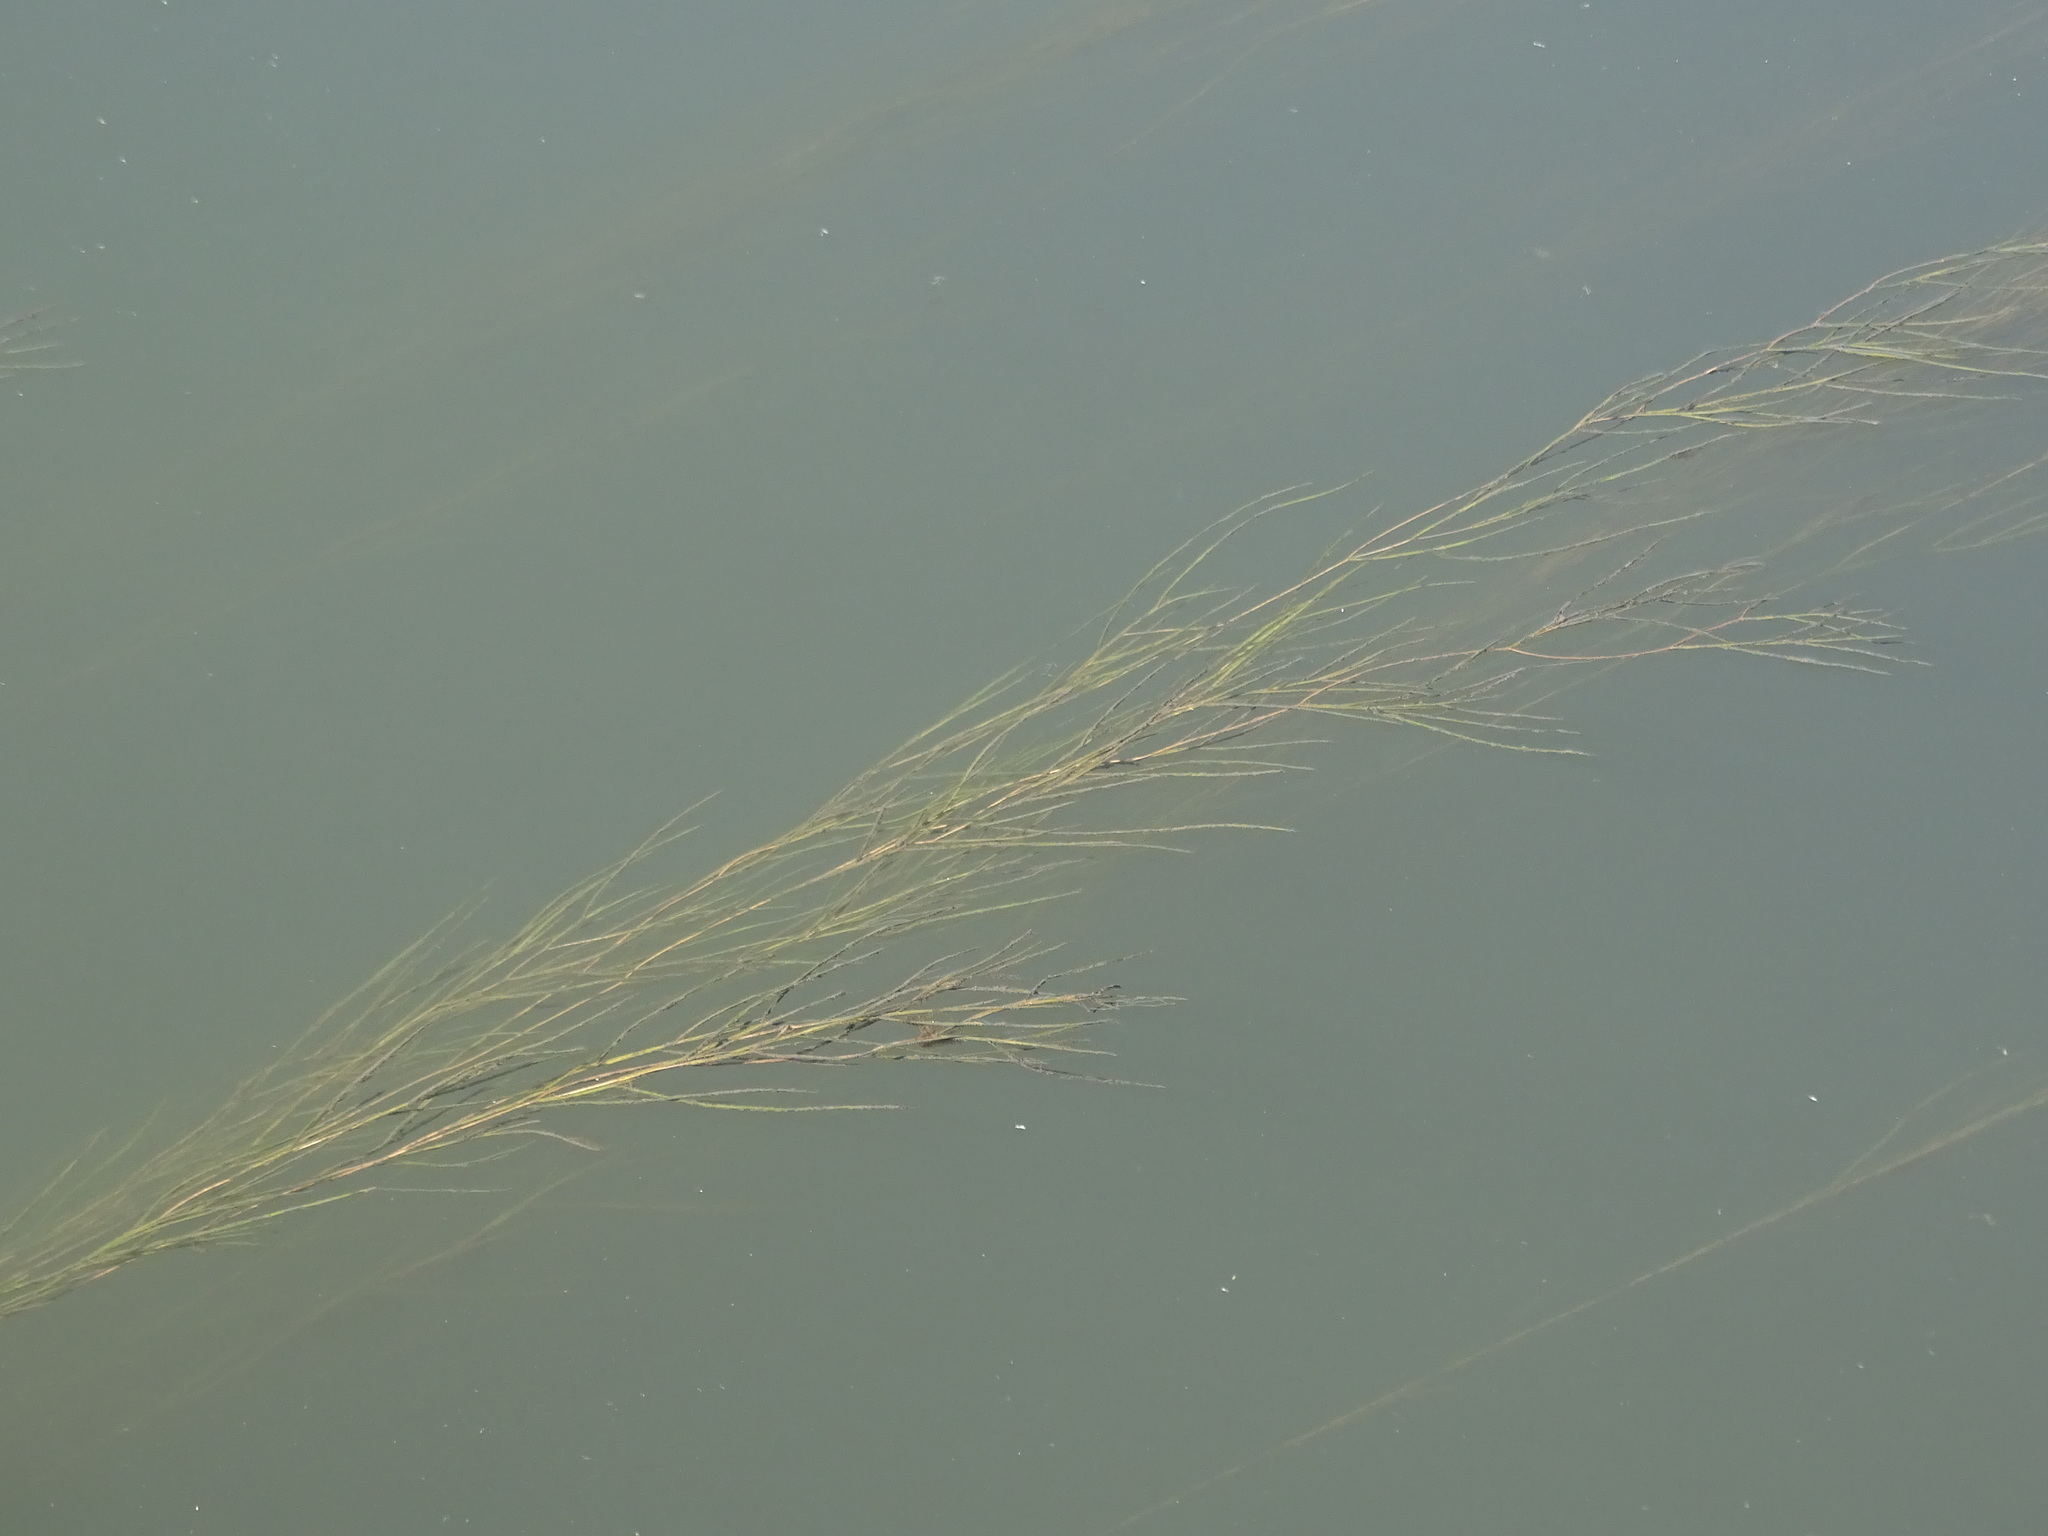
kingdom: Plantae
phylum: Tracheophyta
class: Liliopsida
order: Alismatales
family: Potamogetonaceae
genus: Stuckenia
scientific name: Stuckenia pectinata
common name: Sago pondweed
